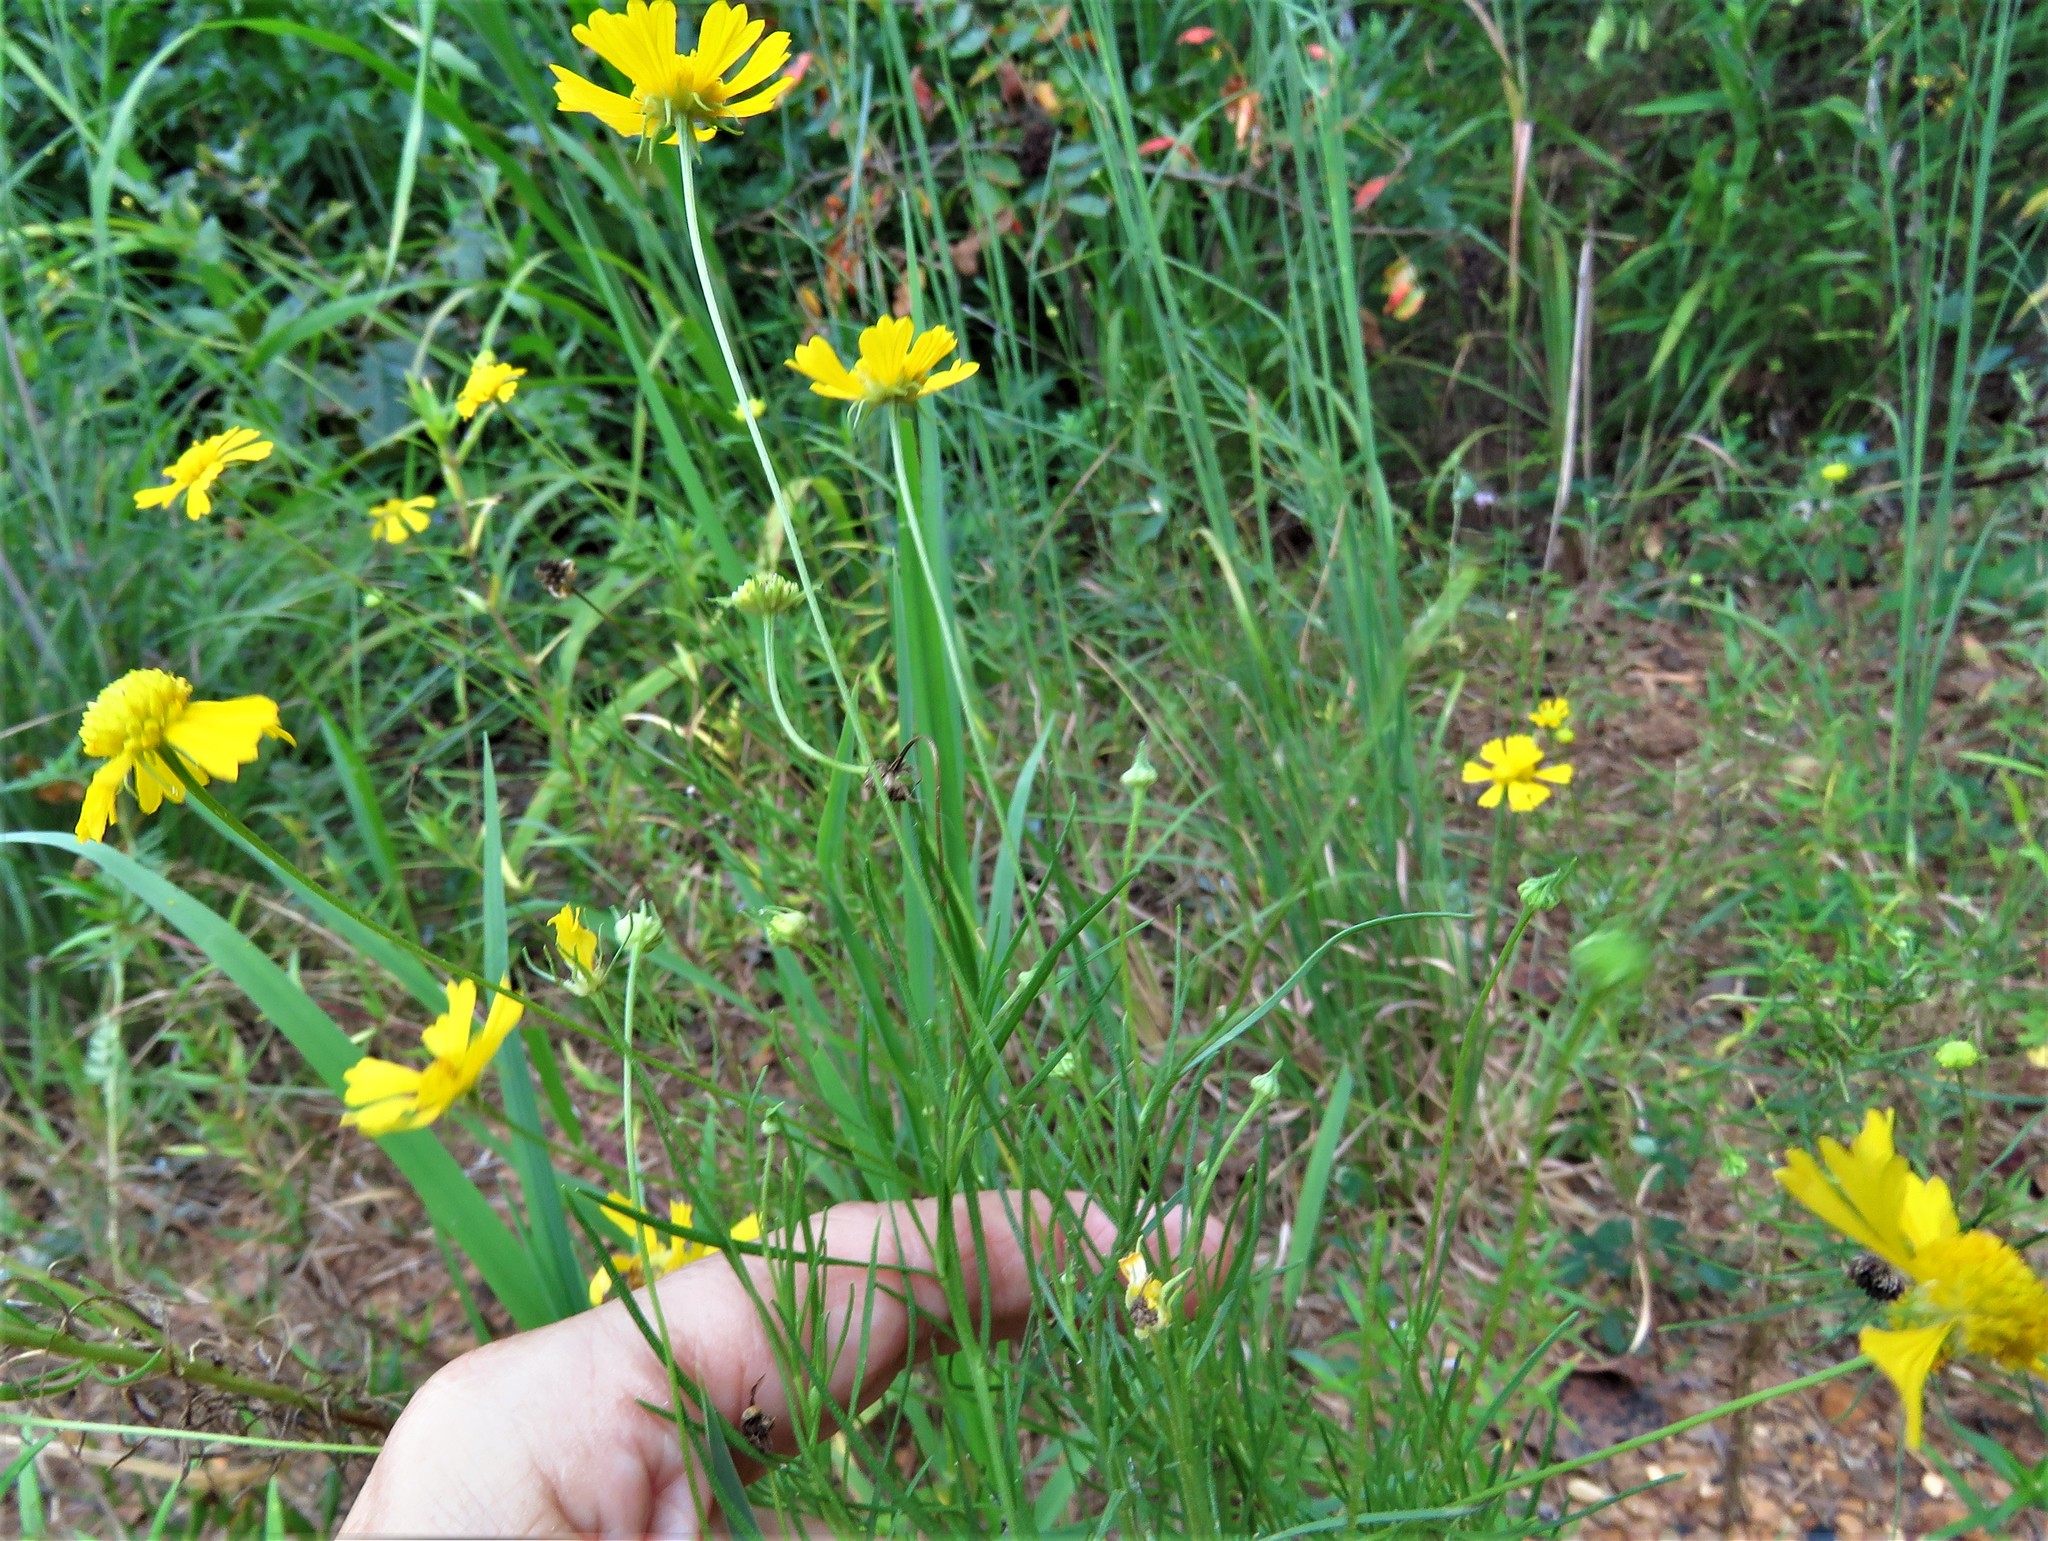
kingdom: Plantae
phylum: Tracheophyta
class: Magnoliopsida
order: Asterales
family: Asteraceae
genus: Helenium
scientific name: Helenium amarum
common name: Bitter sneezeweed
